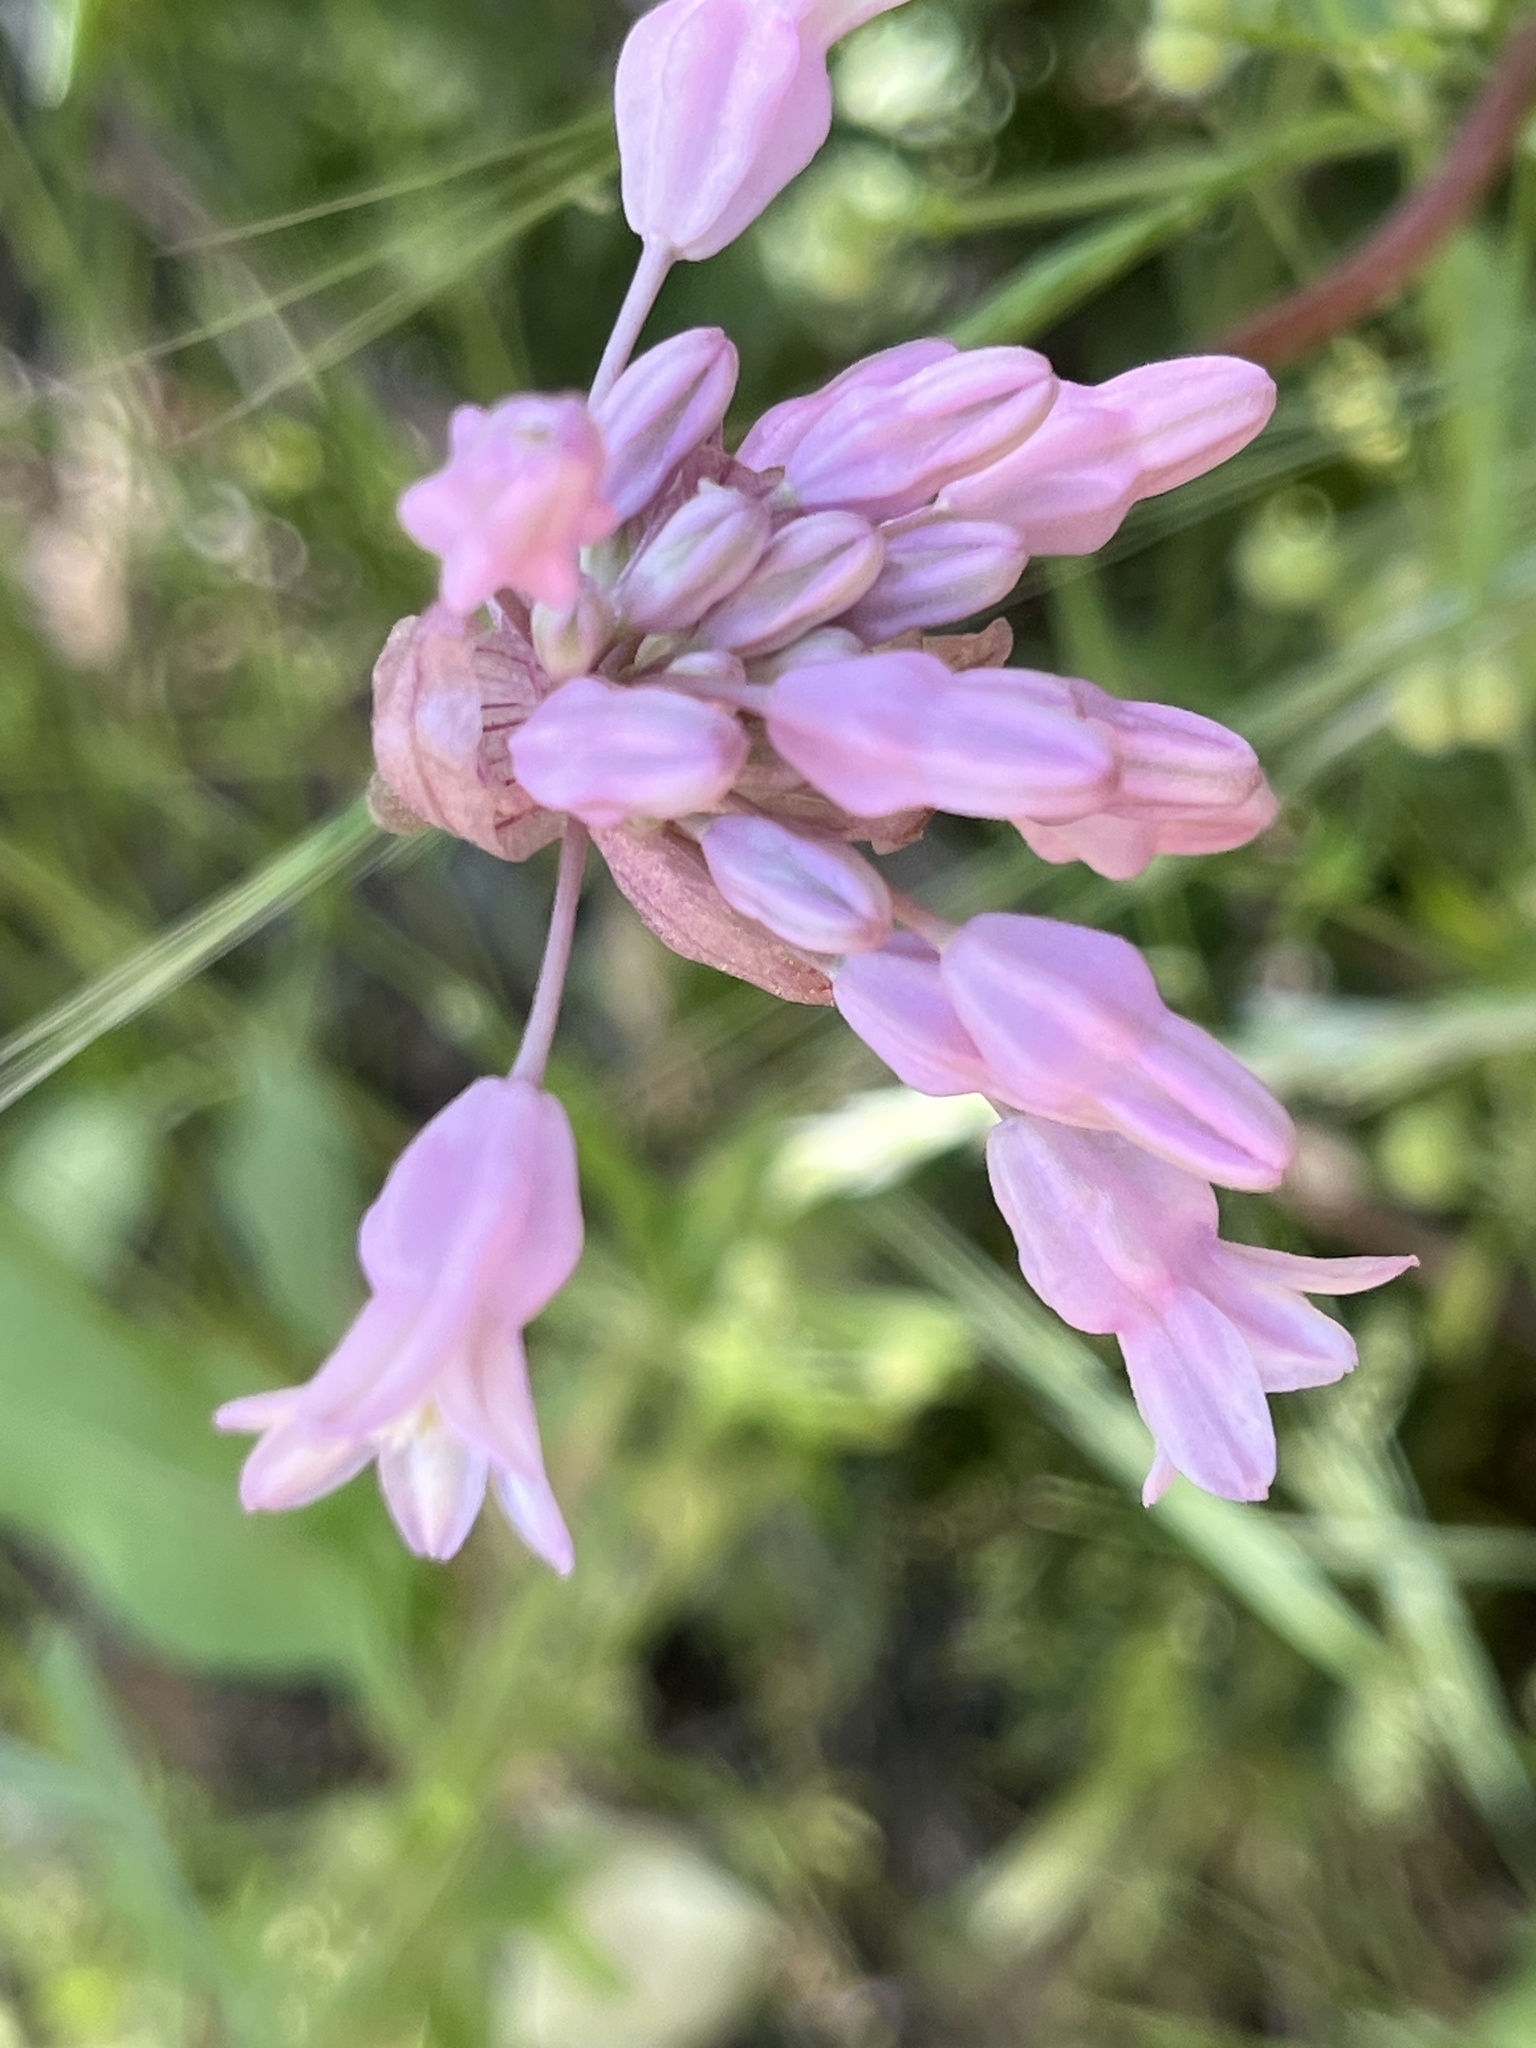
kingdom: Plantae
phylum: Tracheophyta
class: Liliopsida
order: Asparagales
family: Asparagaceae
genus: Dichelostemma
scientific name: Dichelostemma volubile
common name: Trining brodiaea
